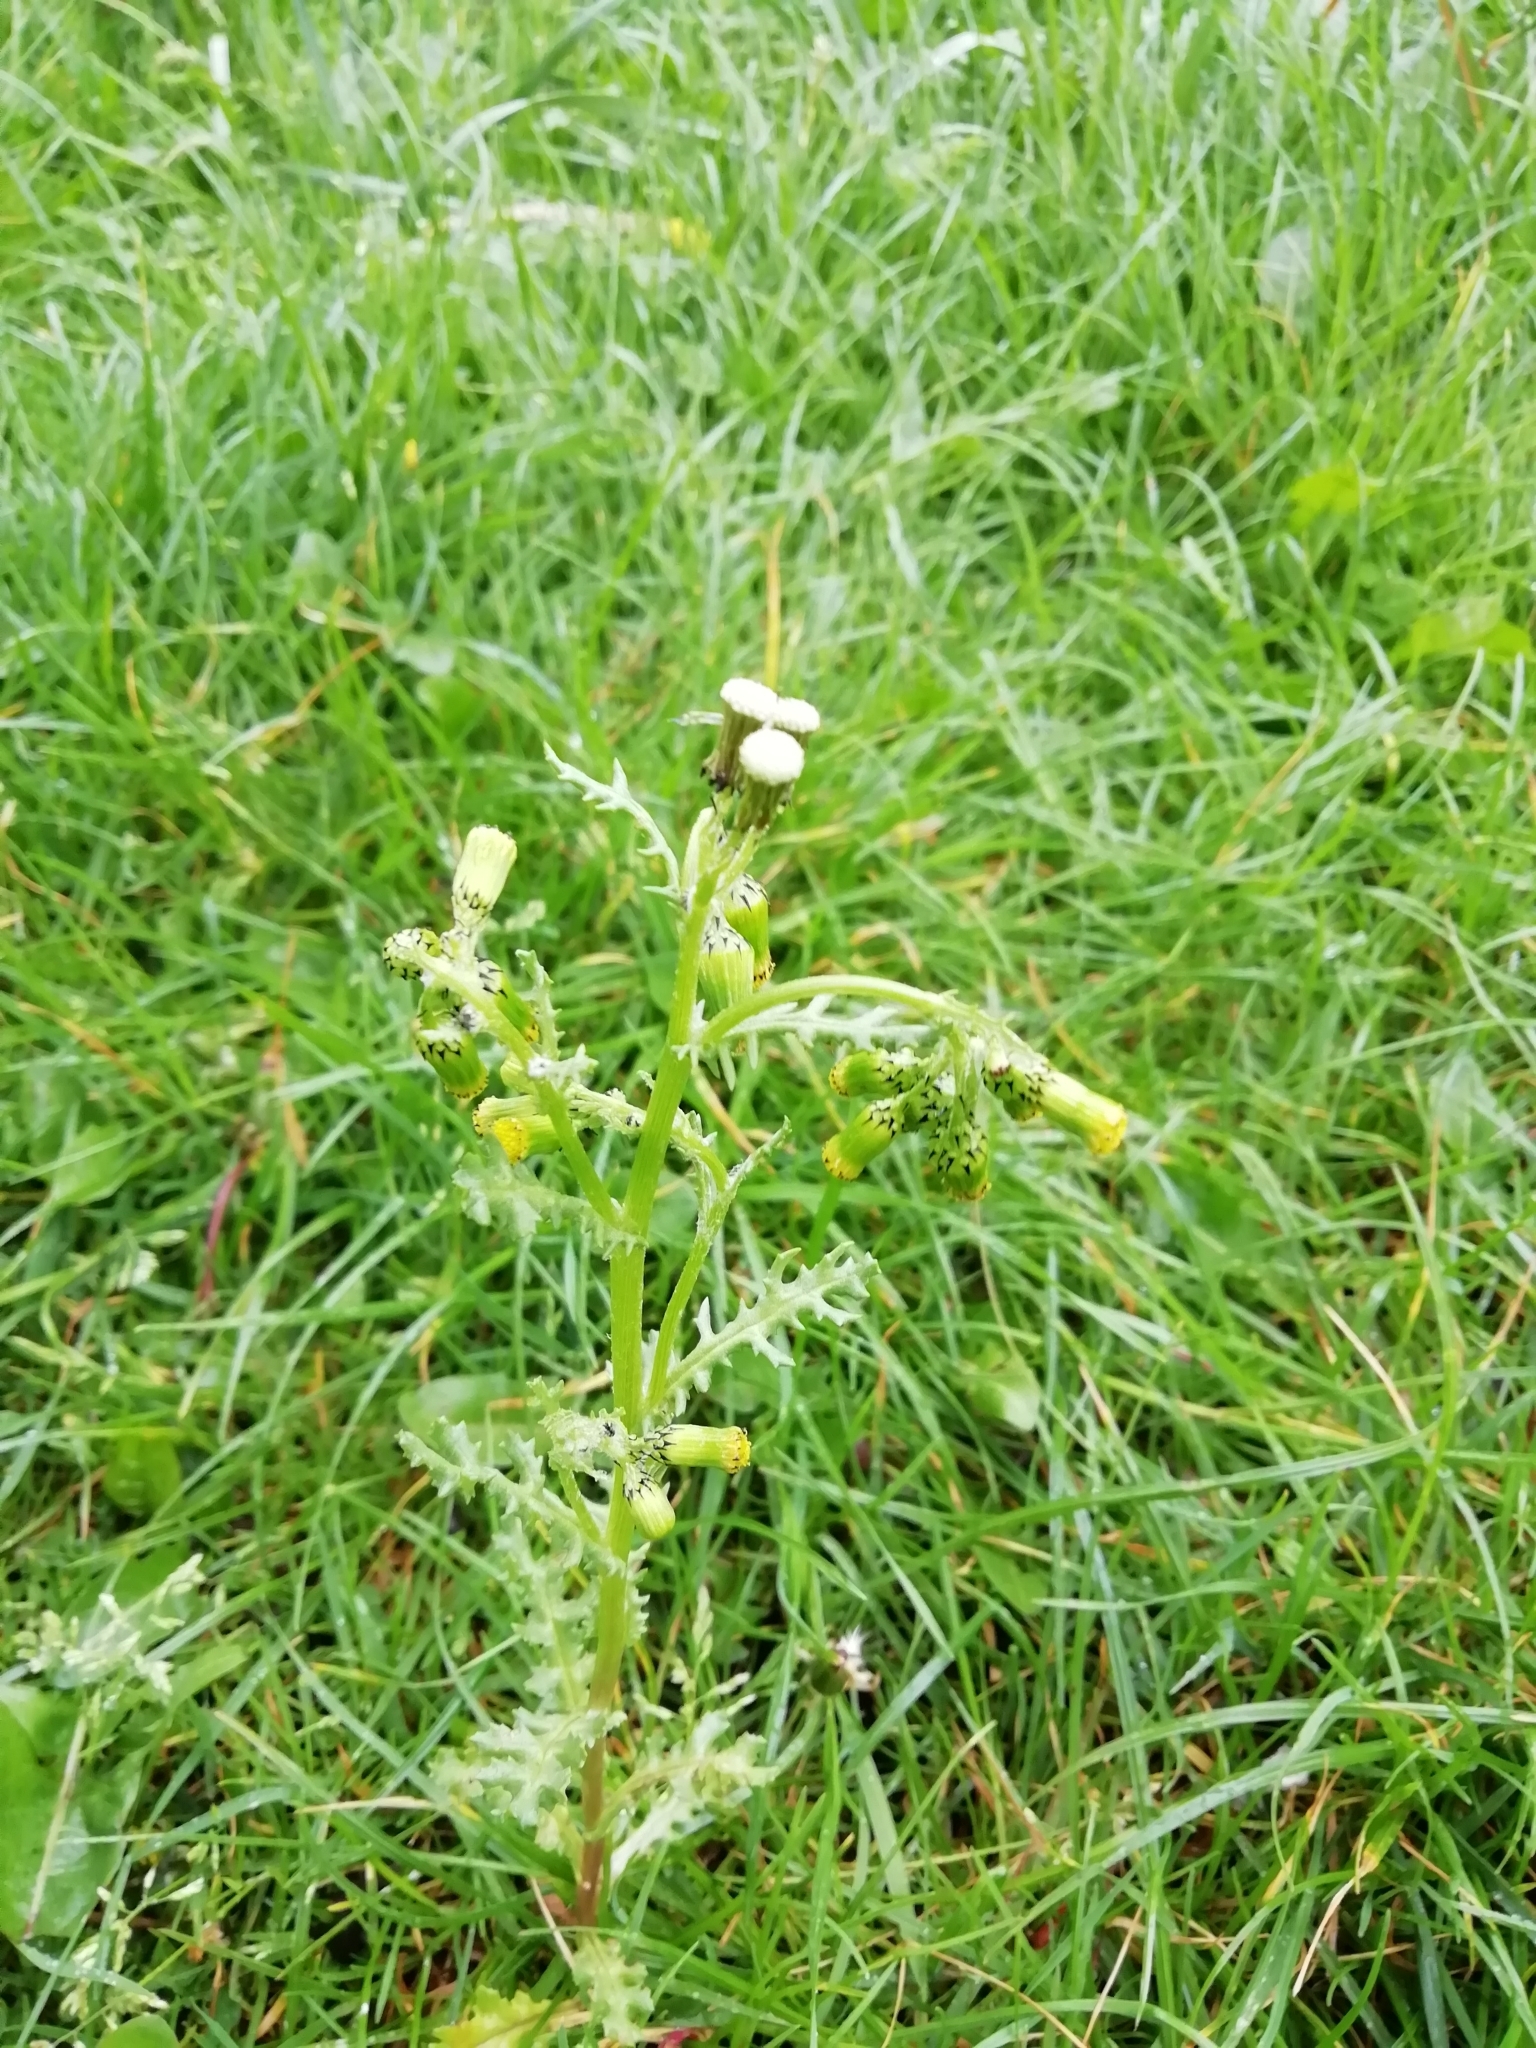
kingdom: Plantae
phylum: Tracheophyta
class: Magnoliopsida
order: Asterales
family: Asteraceae
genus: Senecio
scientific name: Senecio vulgaris
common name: Old-man-in-the-spring
